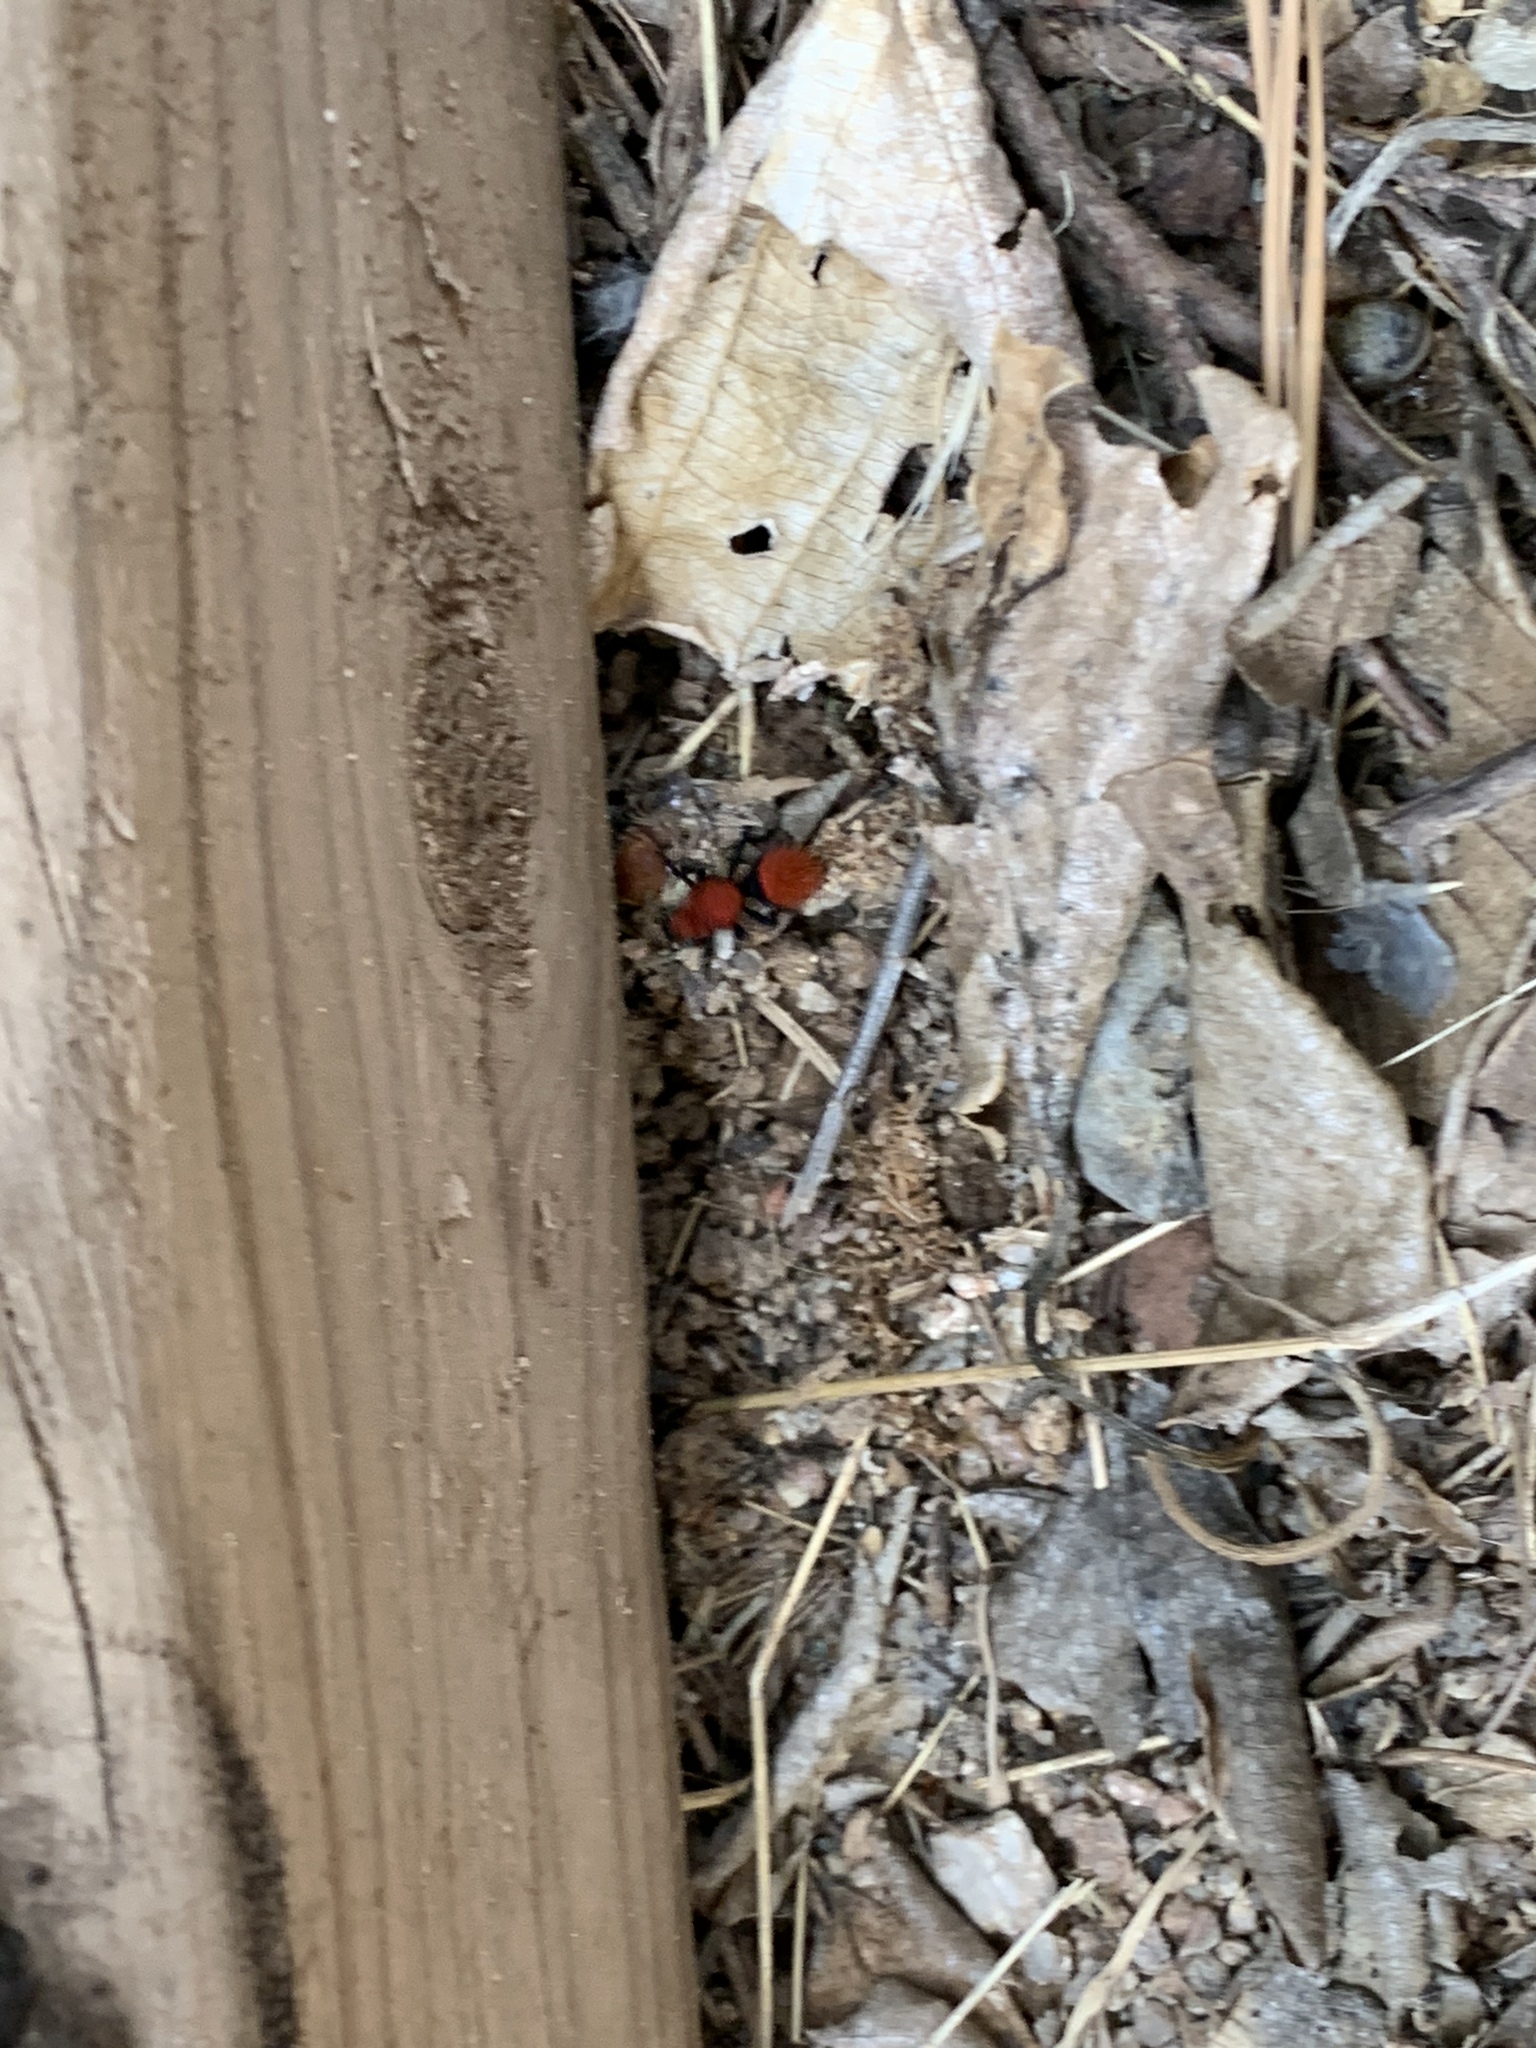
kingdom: Animalia
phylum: Arthropoda
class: Insecta
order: Hymenoptera
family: Mutillidae
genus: Dasymutilla
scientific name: Dasymutilla vestita
